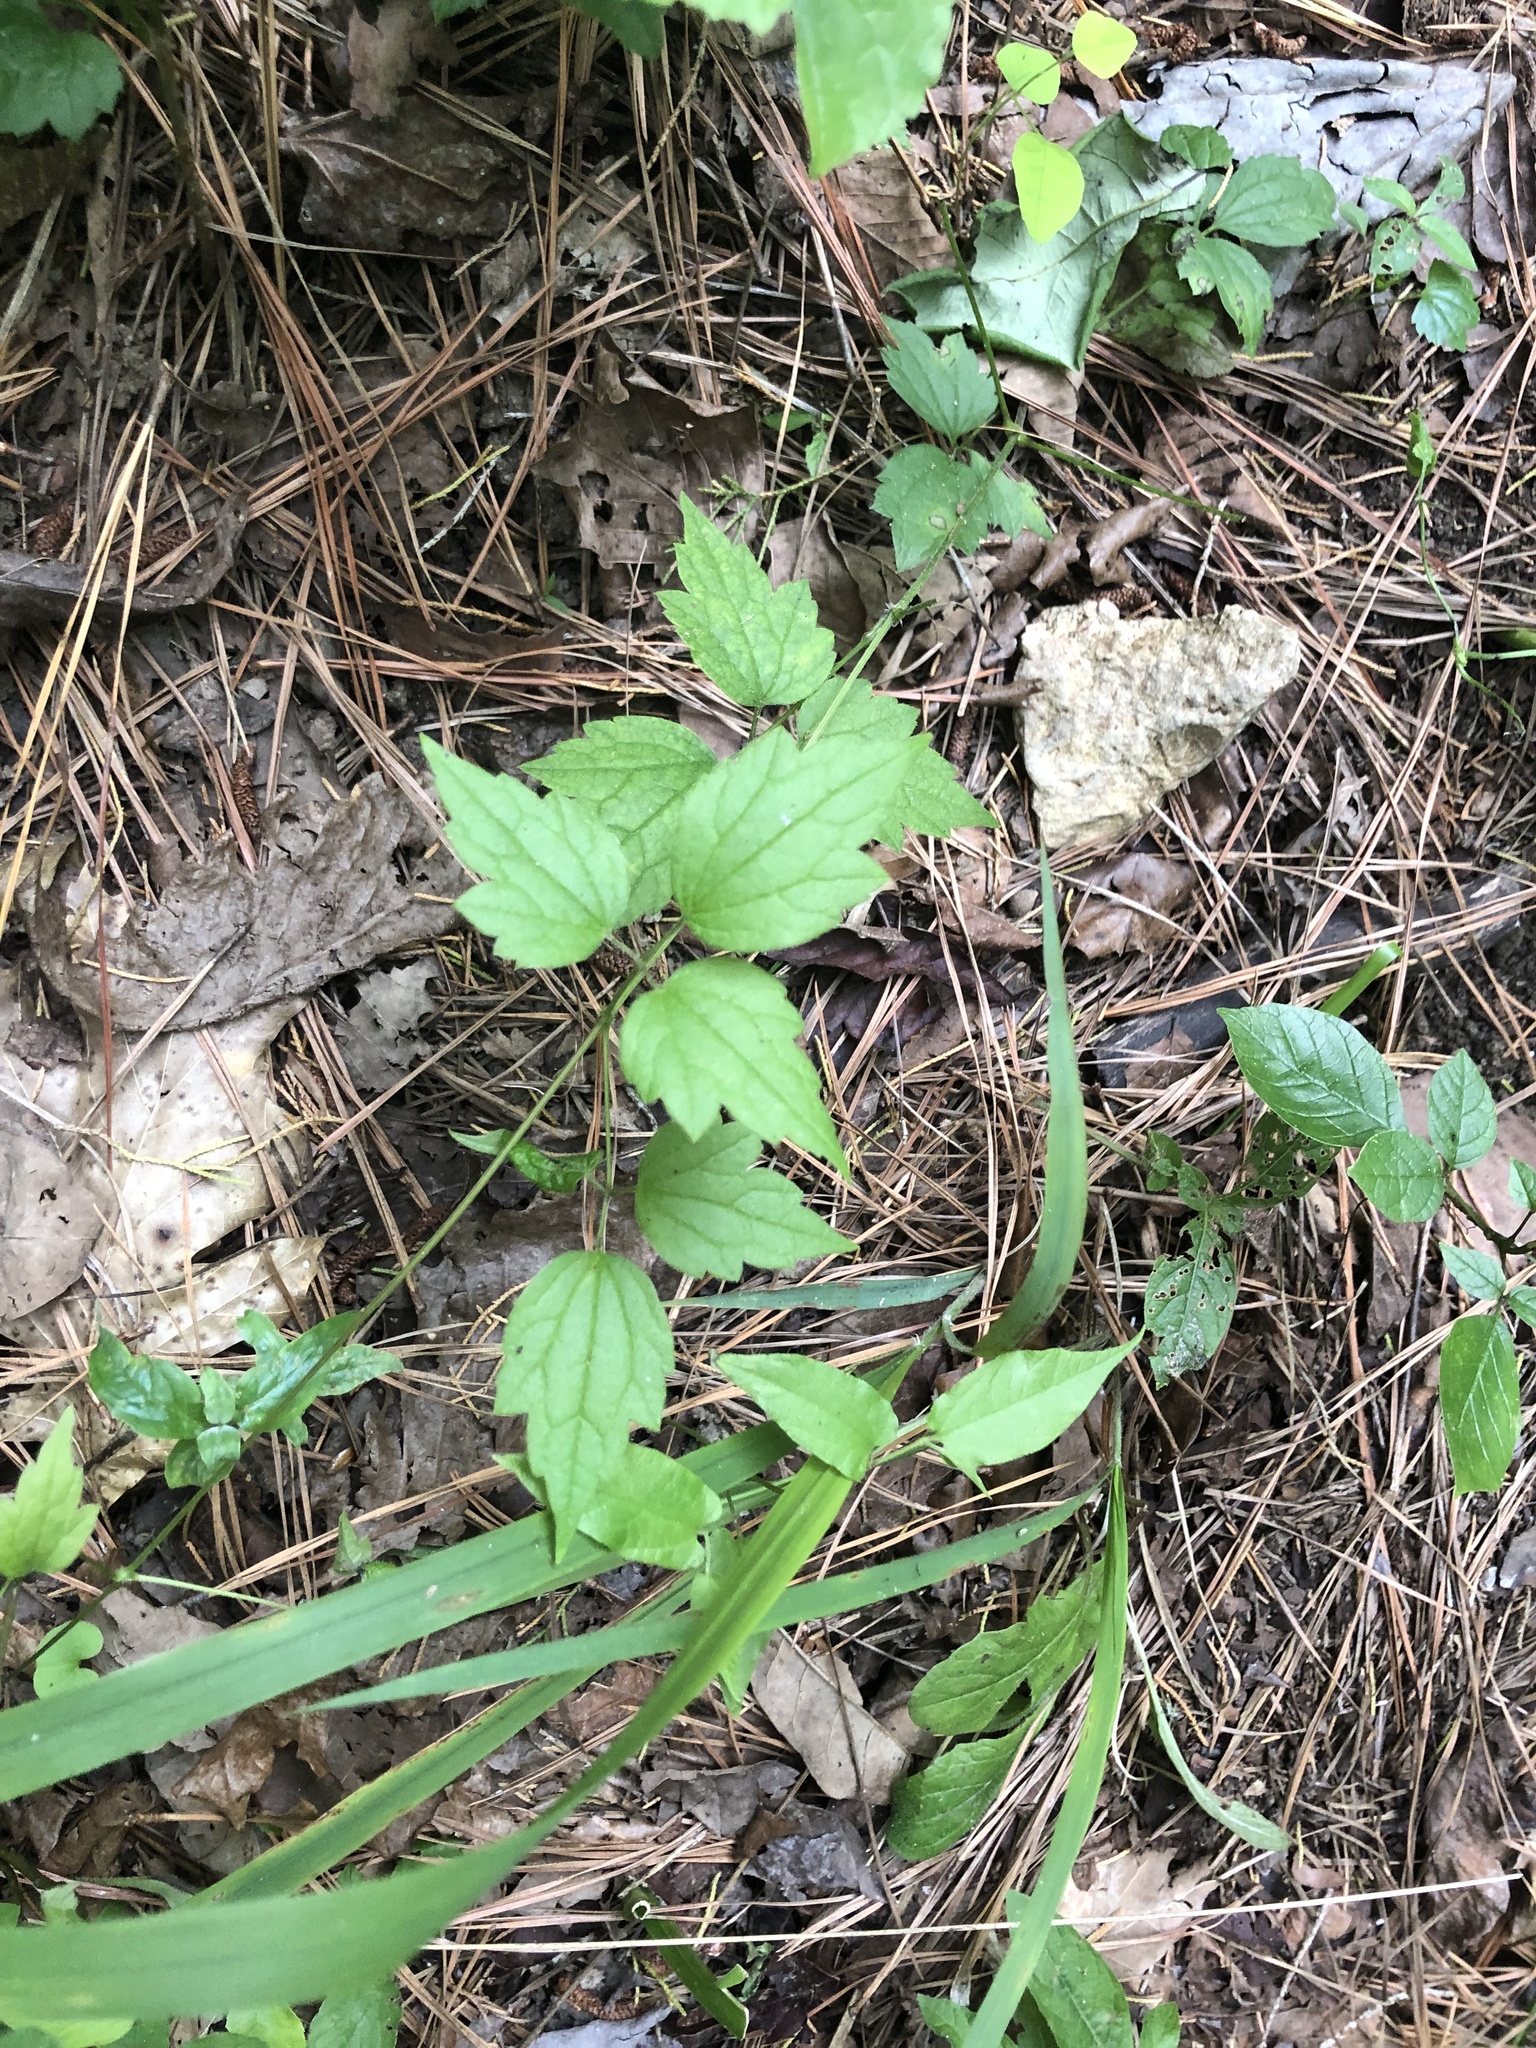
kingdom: Plantae
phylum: Tracheophyta
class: Magnoliopsida
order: Ranunculales
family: Ranunculaceae
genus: Clematis
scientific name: Clematis catesbyana
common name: Virgin's bower
